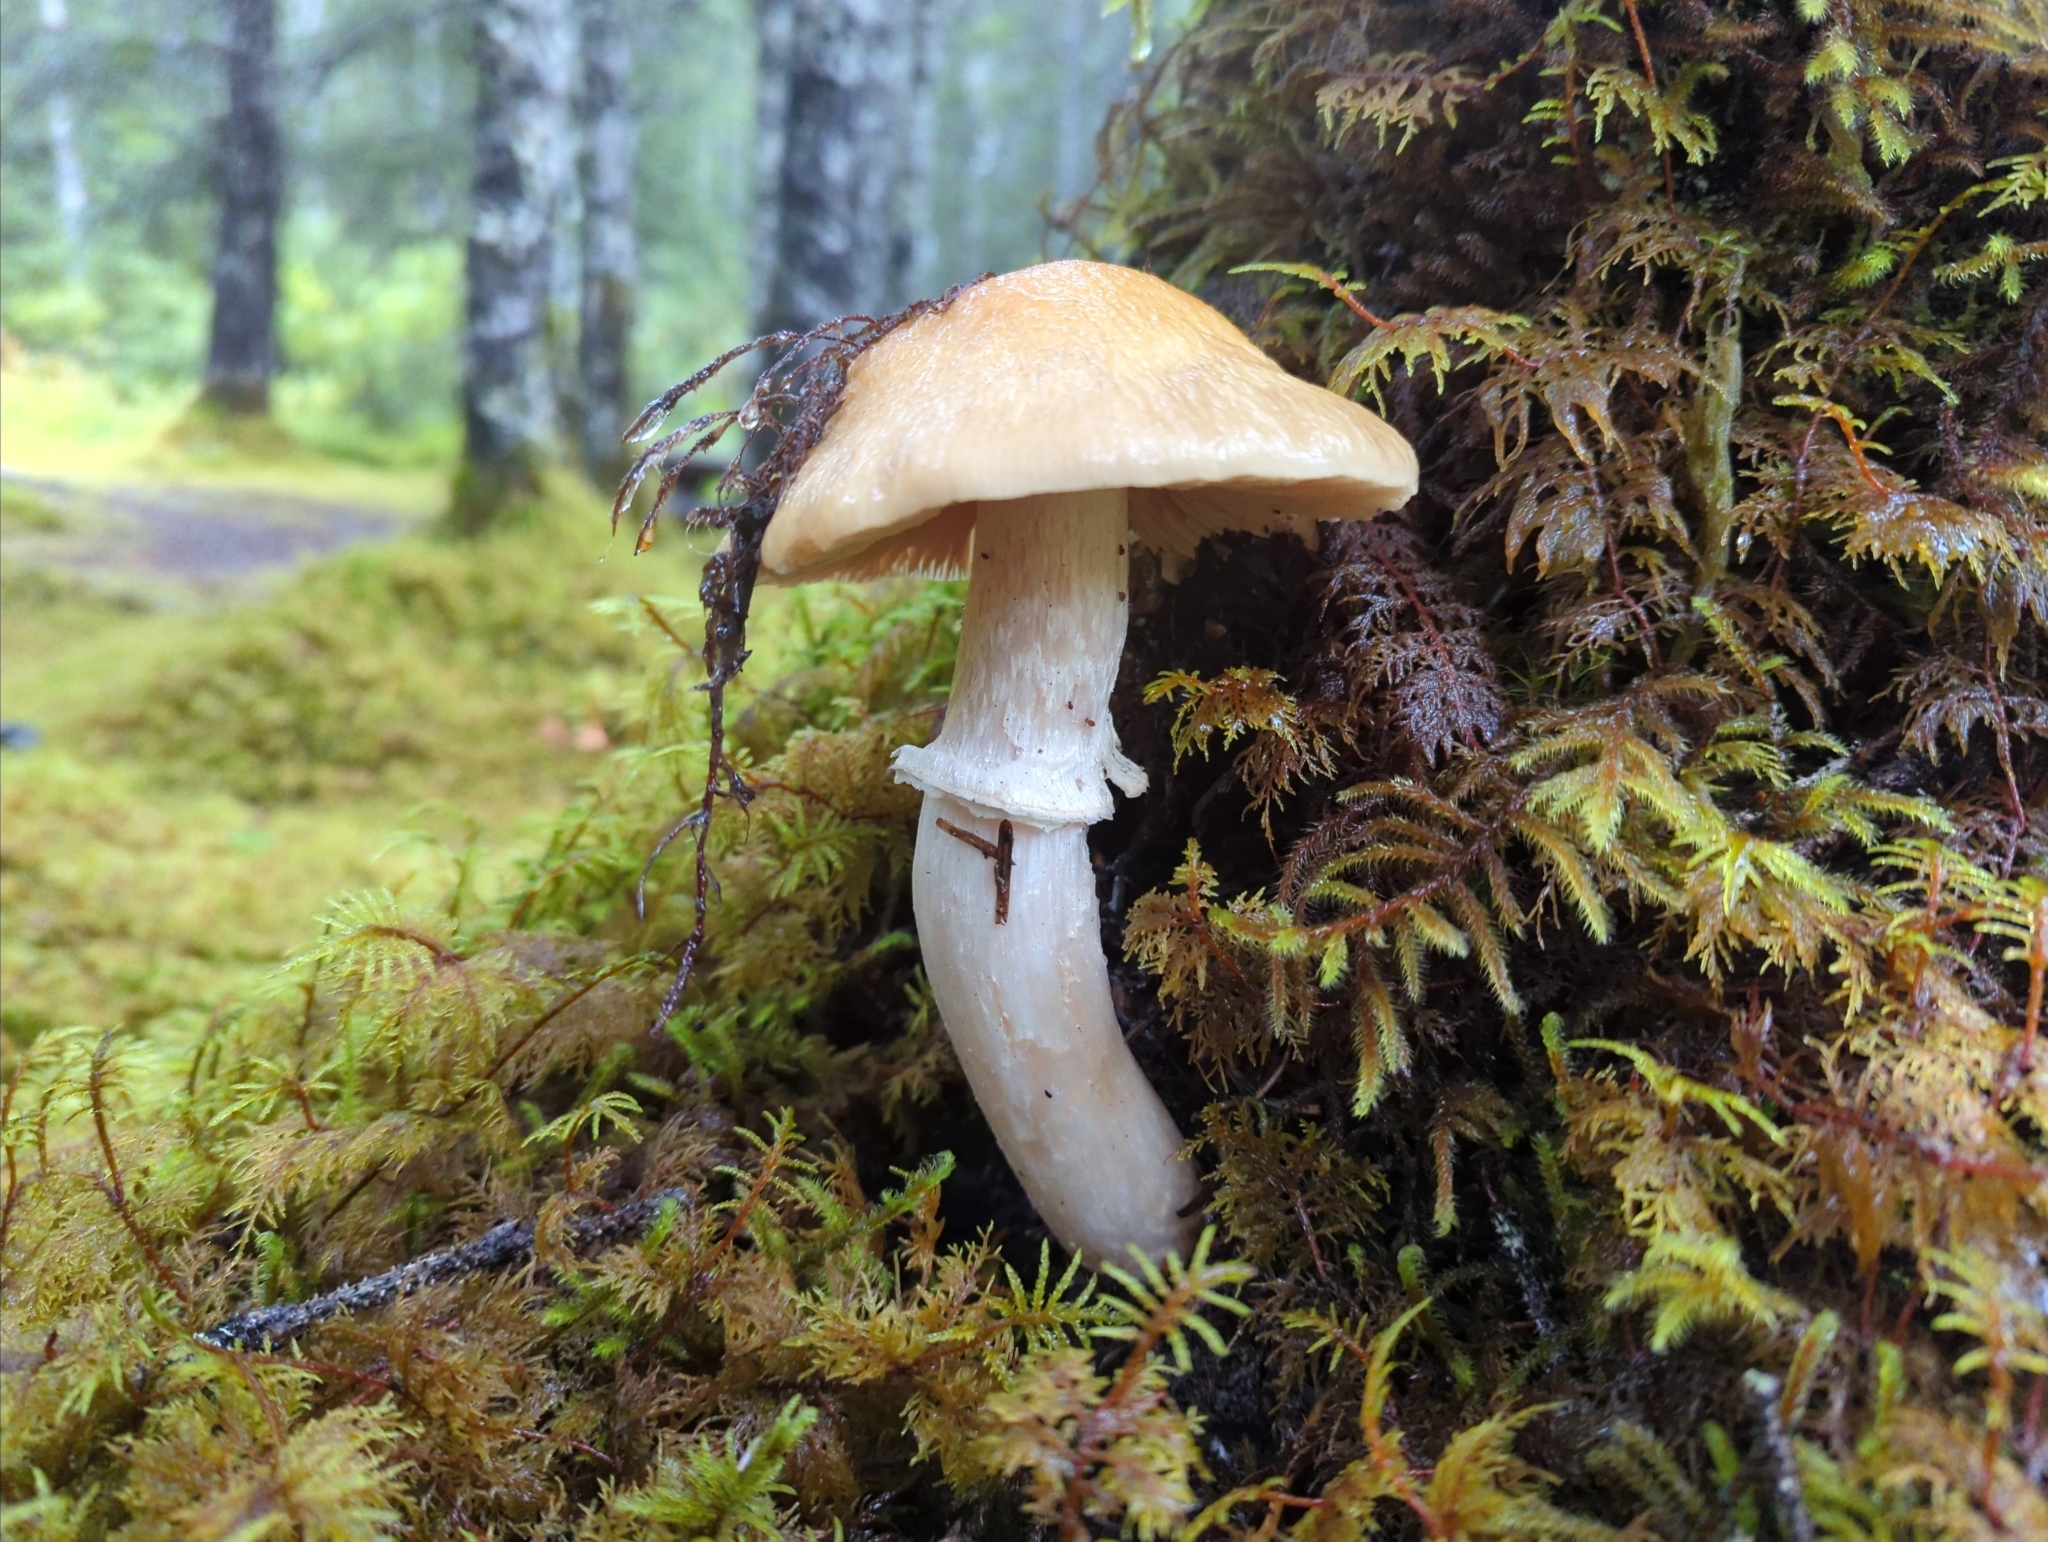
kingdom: Fungi
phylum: Basidiomycota
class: Agaricomycetes
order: Agaricales
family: Cortinariaceae
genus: Cortinarius
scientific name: Cortinarius caperatus
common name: The gypsy
